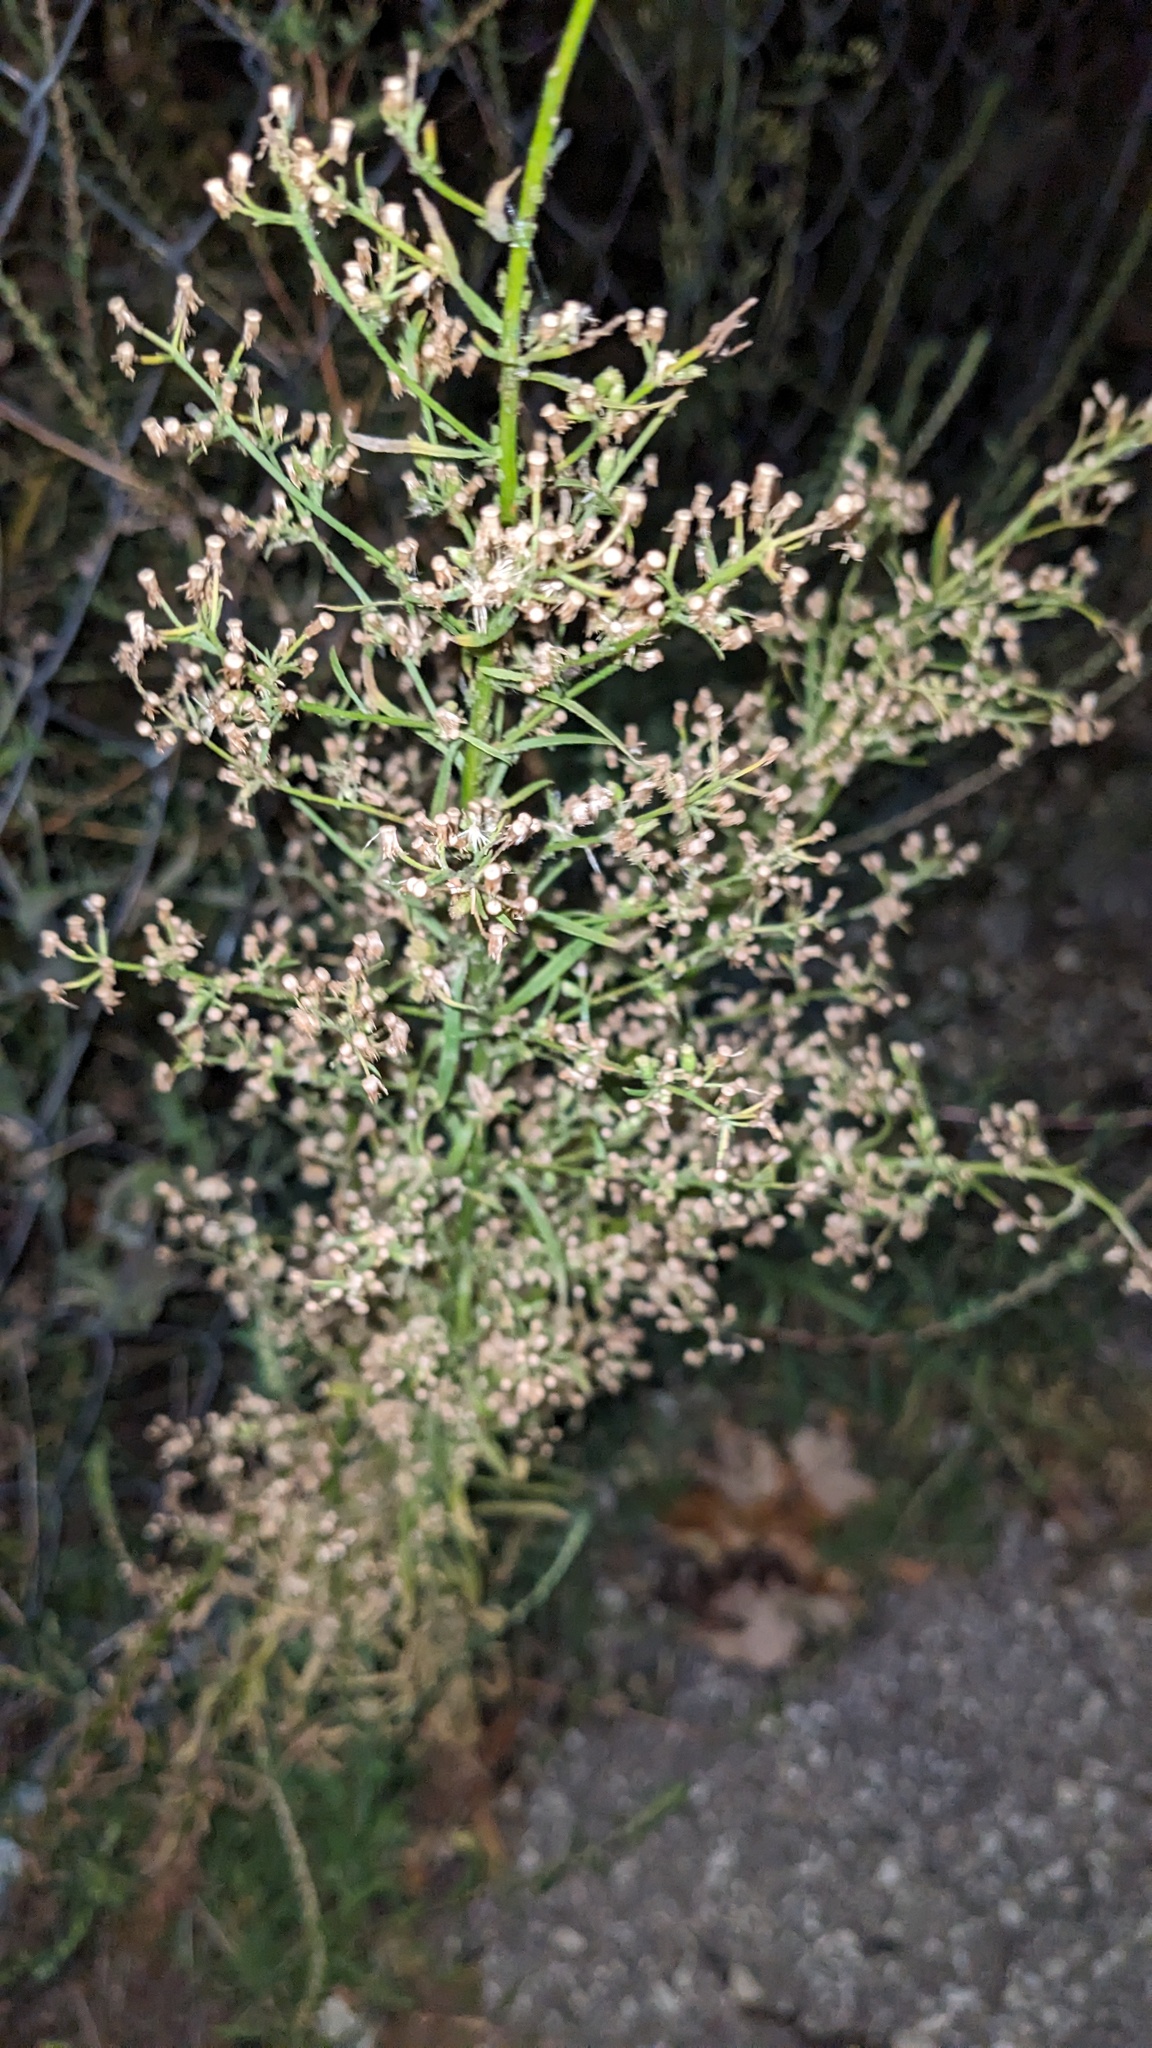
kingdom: Plantae
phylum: Tracheophyta
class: Magnoliopsida
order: Asterales
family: Asteraceae
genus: Erigeron
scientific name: Erigeron canadensis
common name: Canadian fleabane
